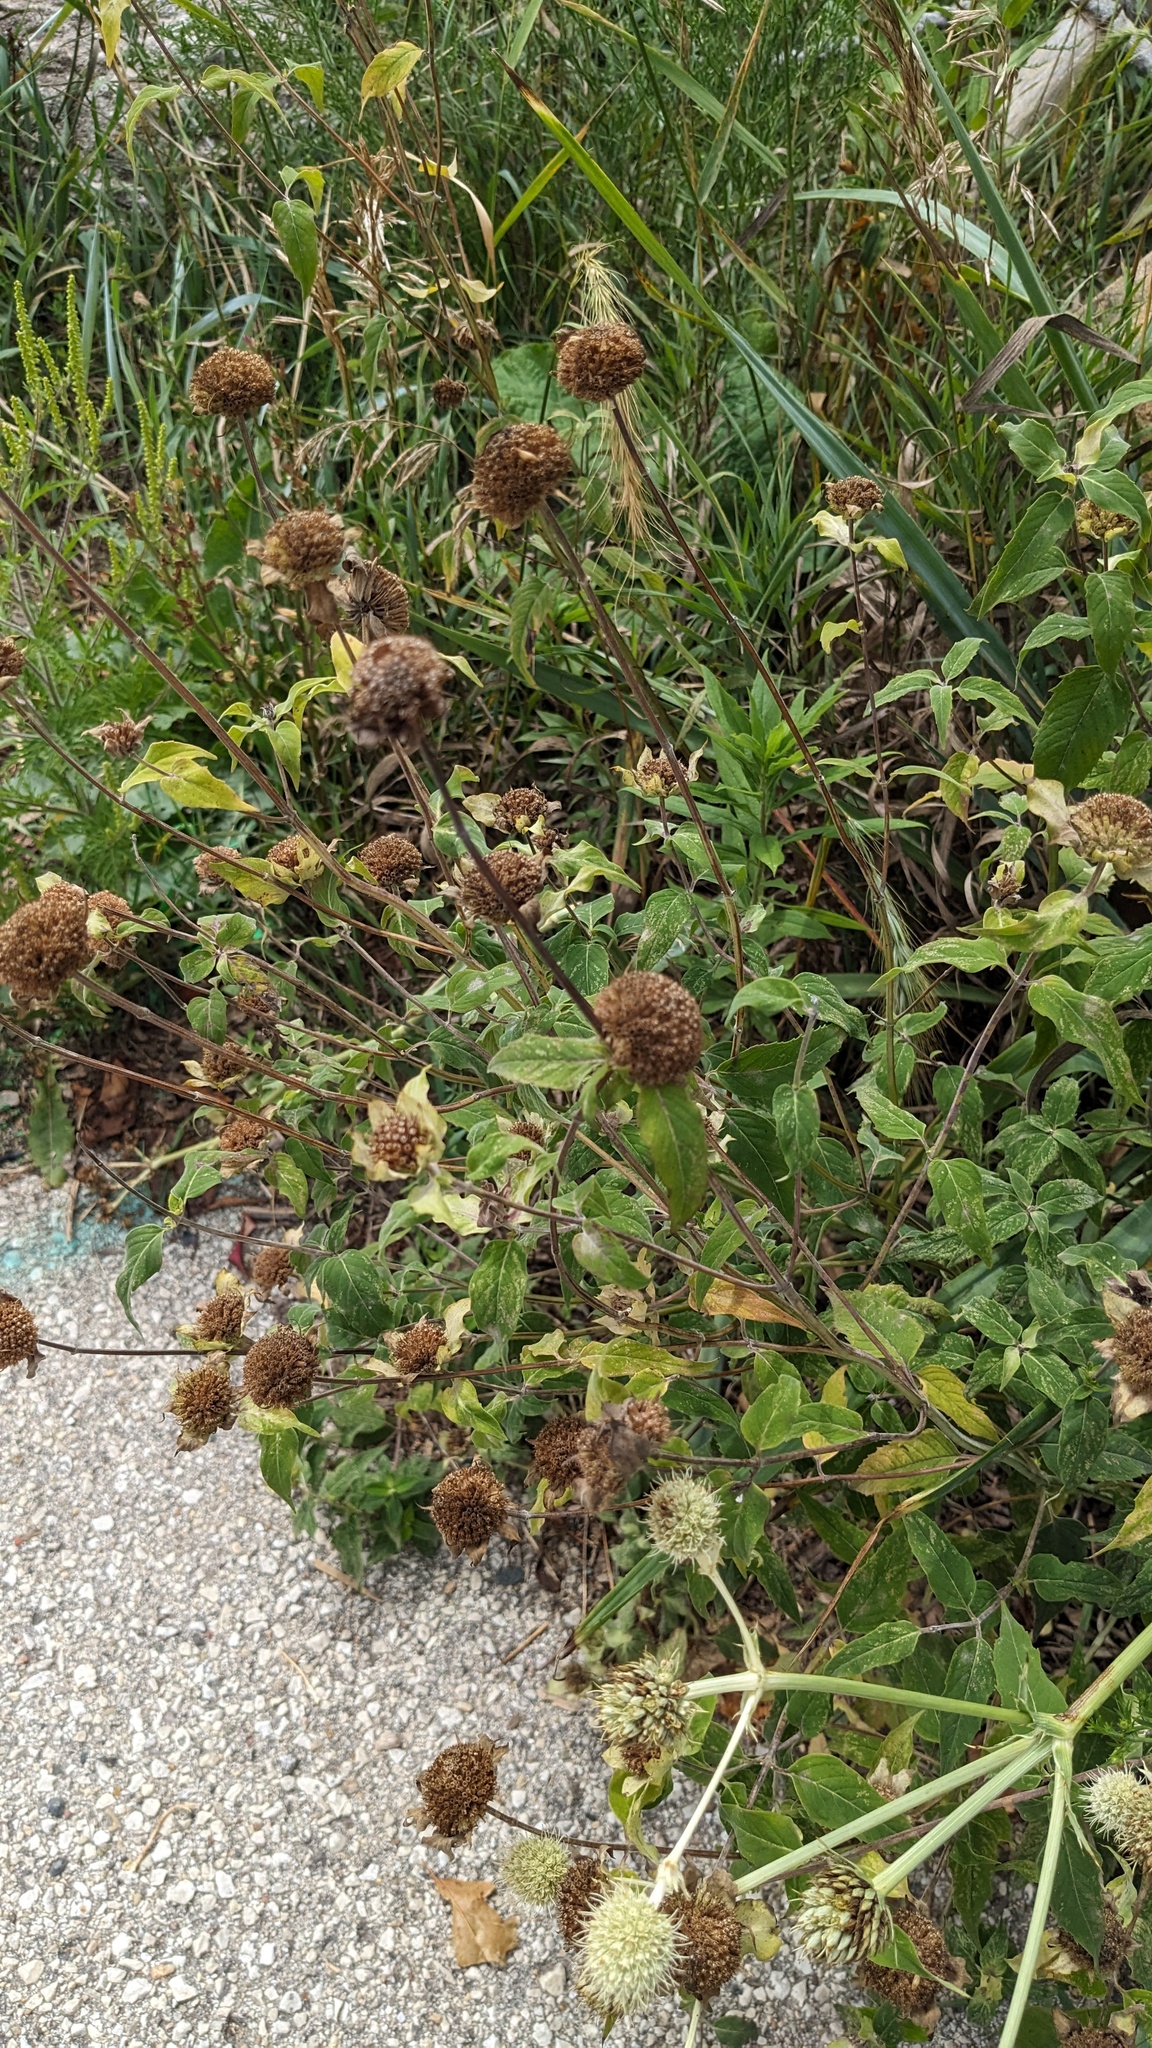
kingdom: Plantae
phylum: Tracheophyta
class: Magnoliopsida
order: Lamiales
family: Lamiaceae
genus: Monarda
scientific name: Monarda fistulosa
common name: Purple beebalm
